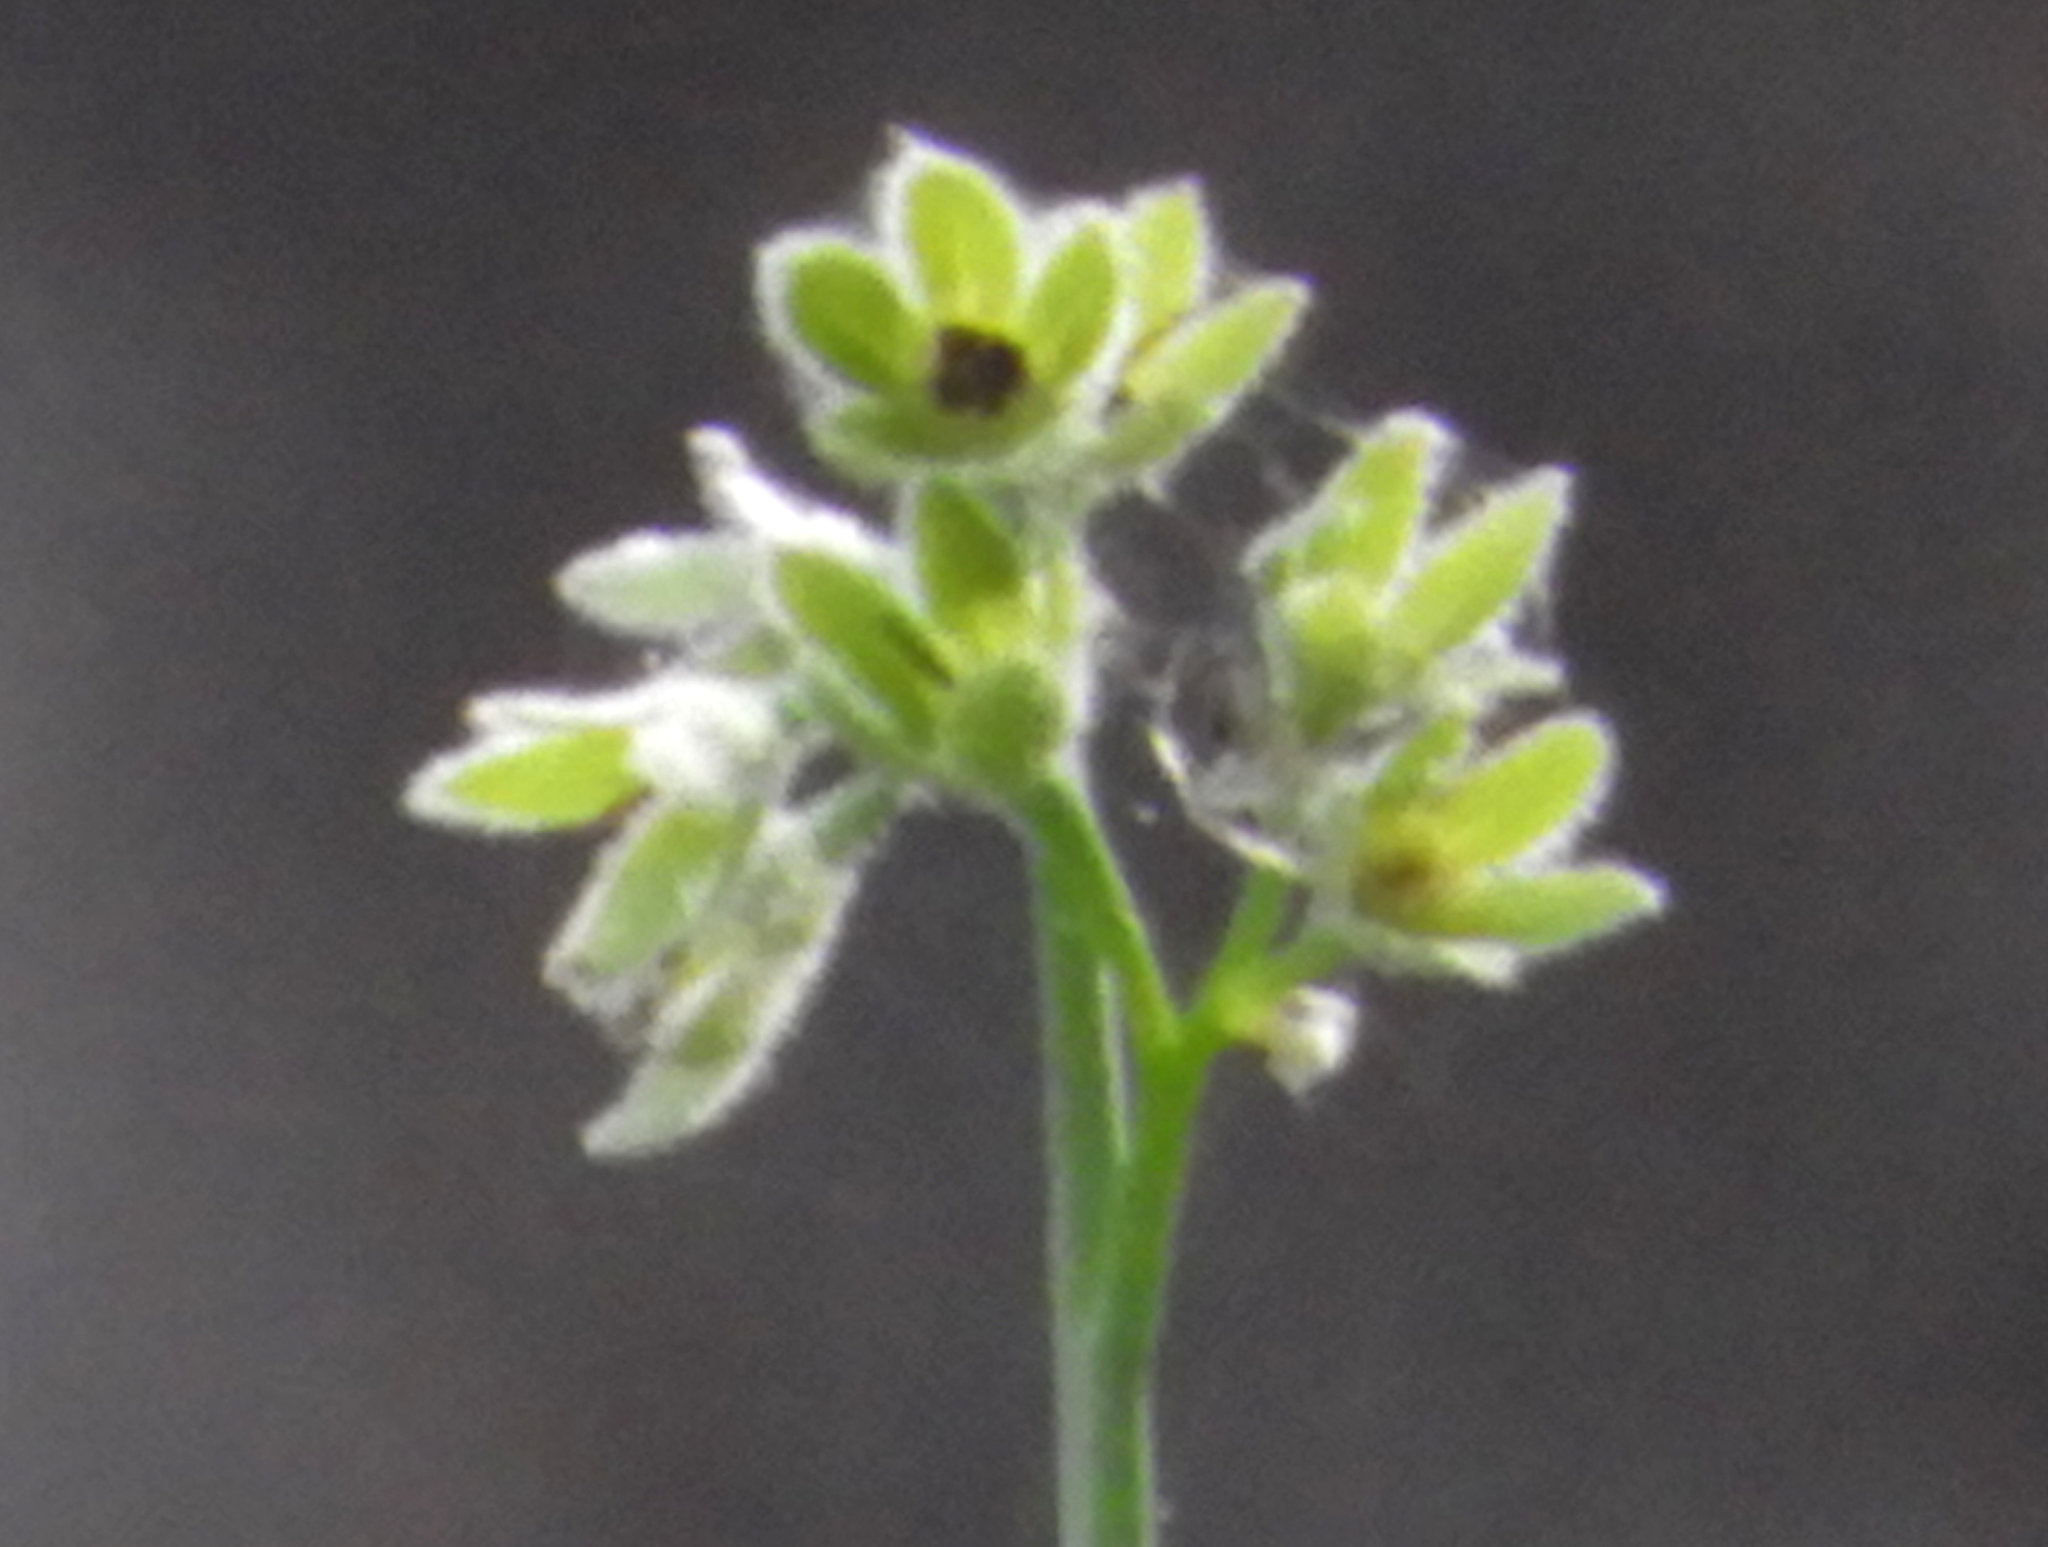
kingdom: Plantae
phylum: Tracheophyta
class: Magnoliopsida
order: Boraginales
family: Boraginaceae
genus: Adelinia
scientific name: Adelinia grande
